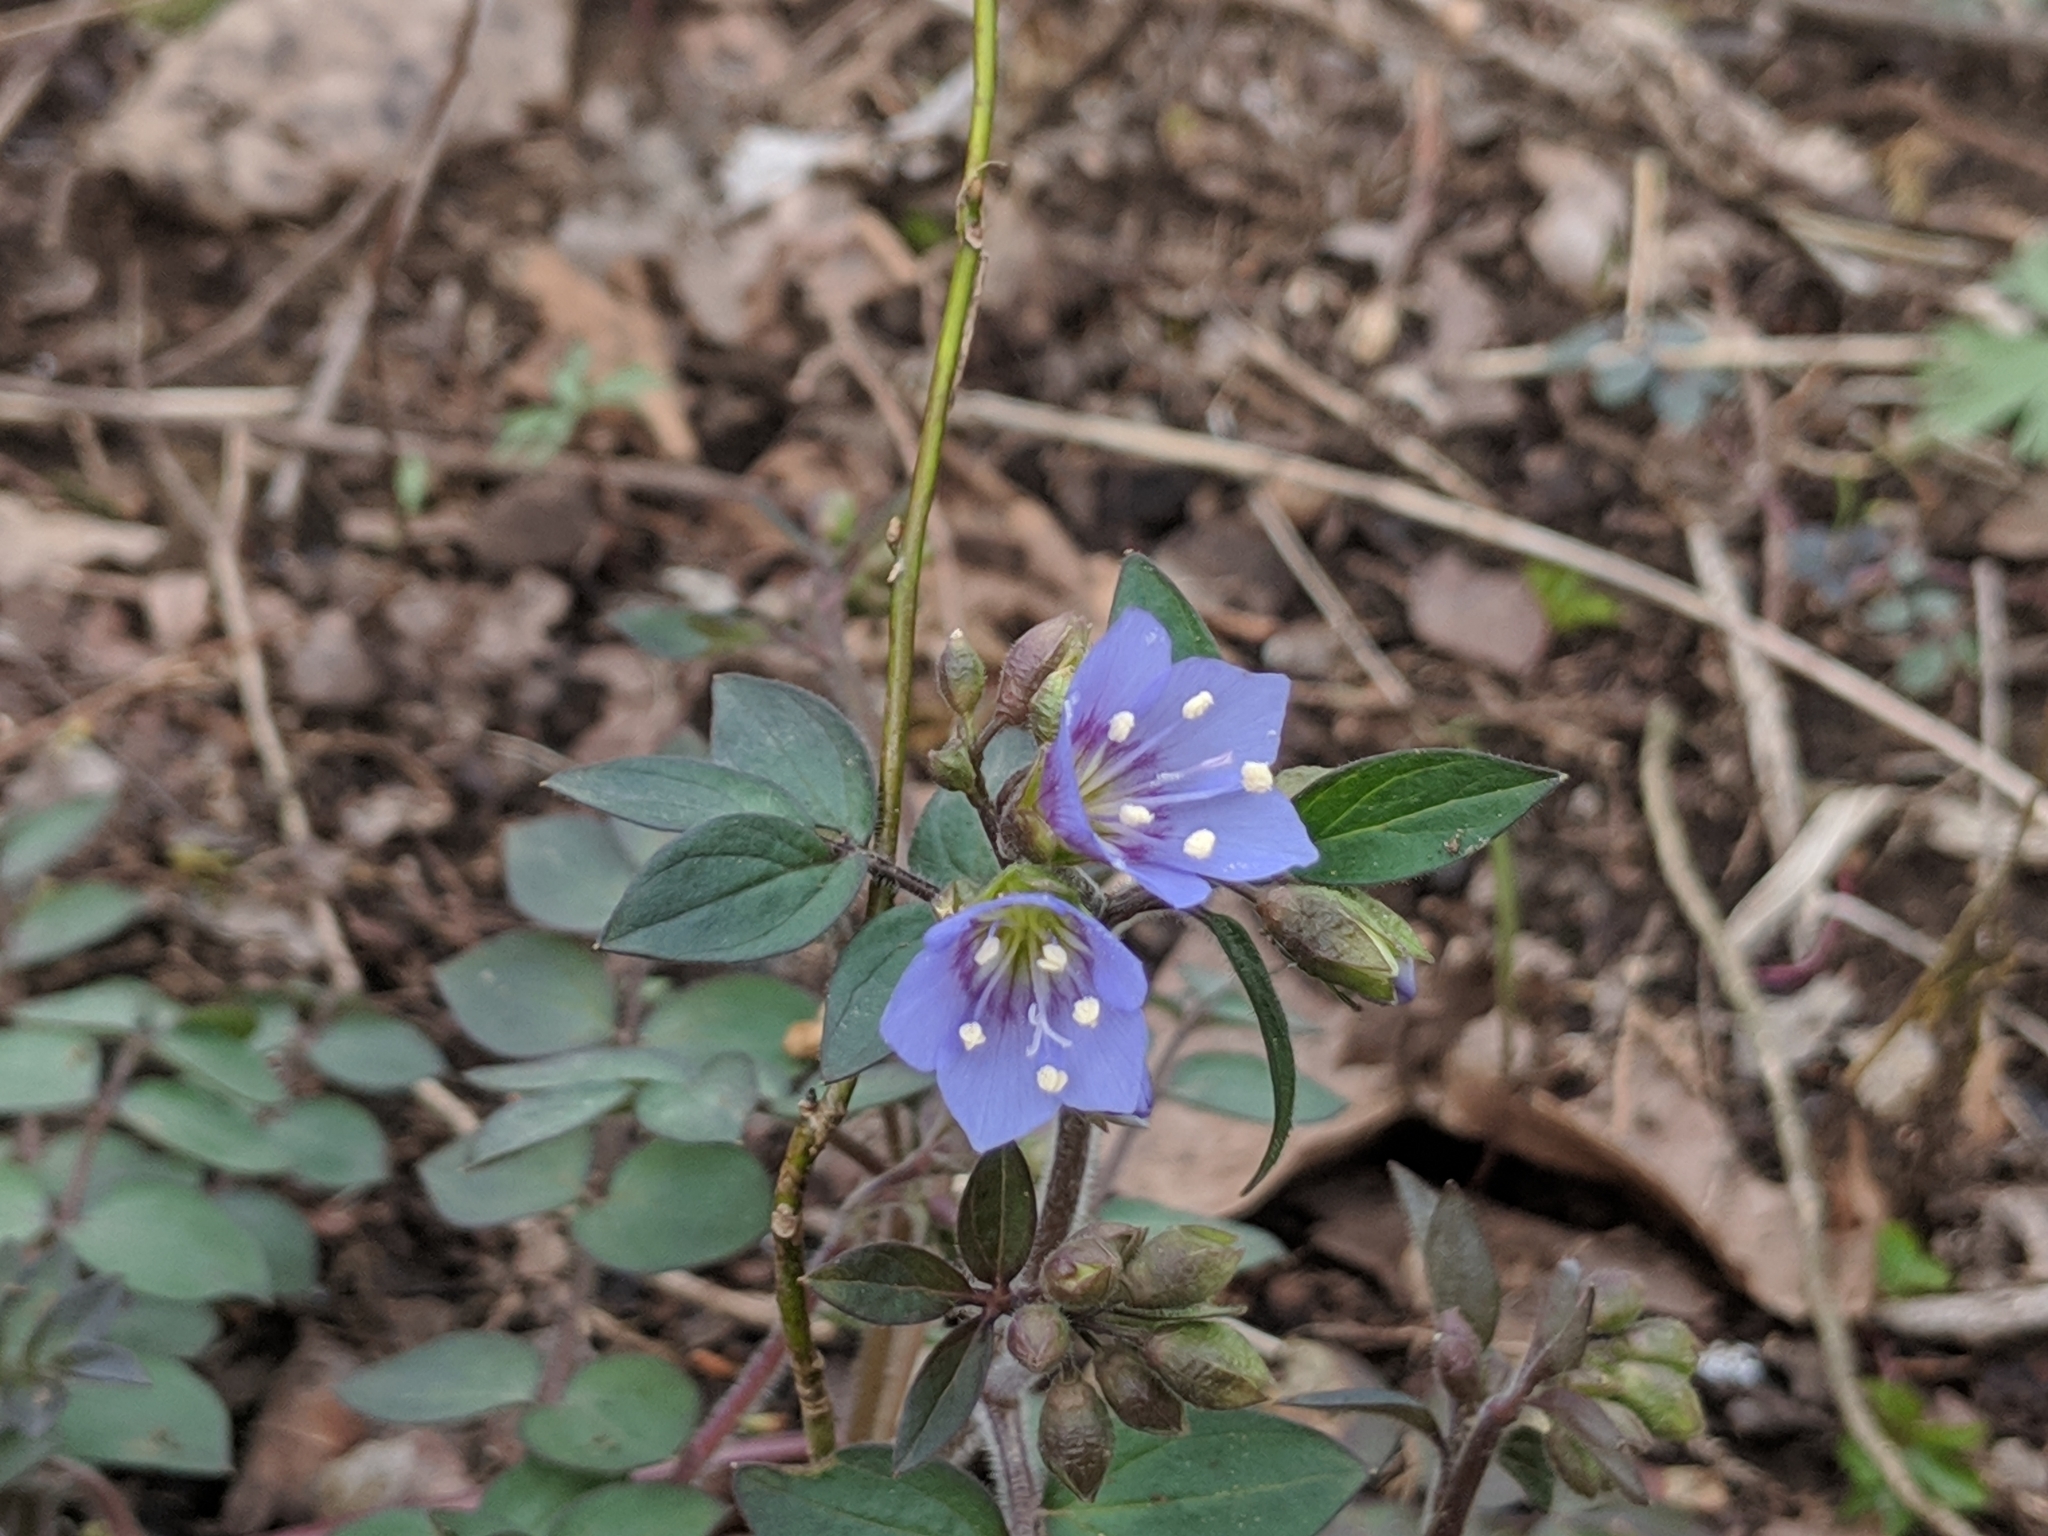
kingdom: Plantae
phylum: Tracheophyta
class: Magnoliopsida
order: Ericales
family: Polemoniaceae
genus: Polemonium
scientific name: Polemonium reptans
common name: Creeping jacob's-ladder
